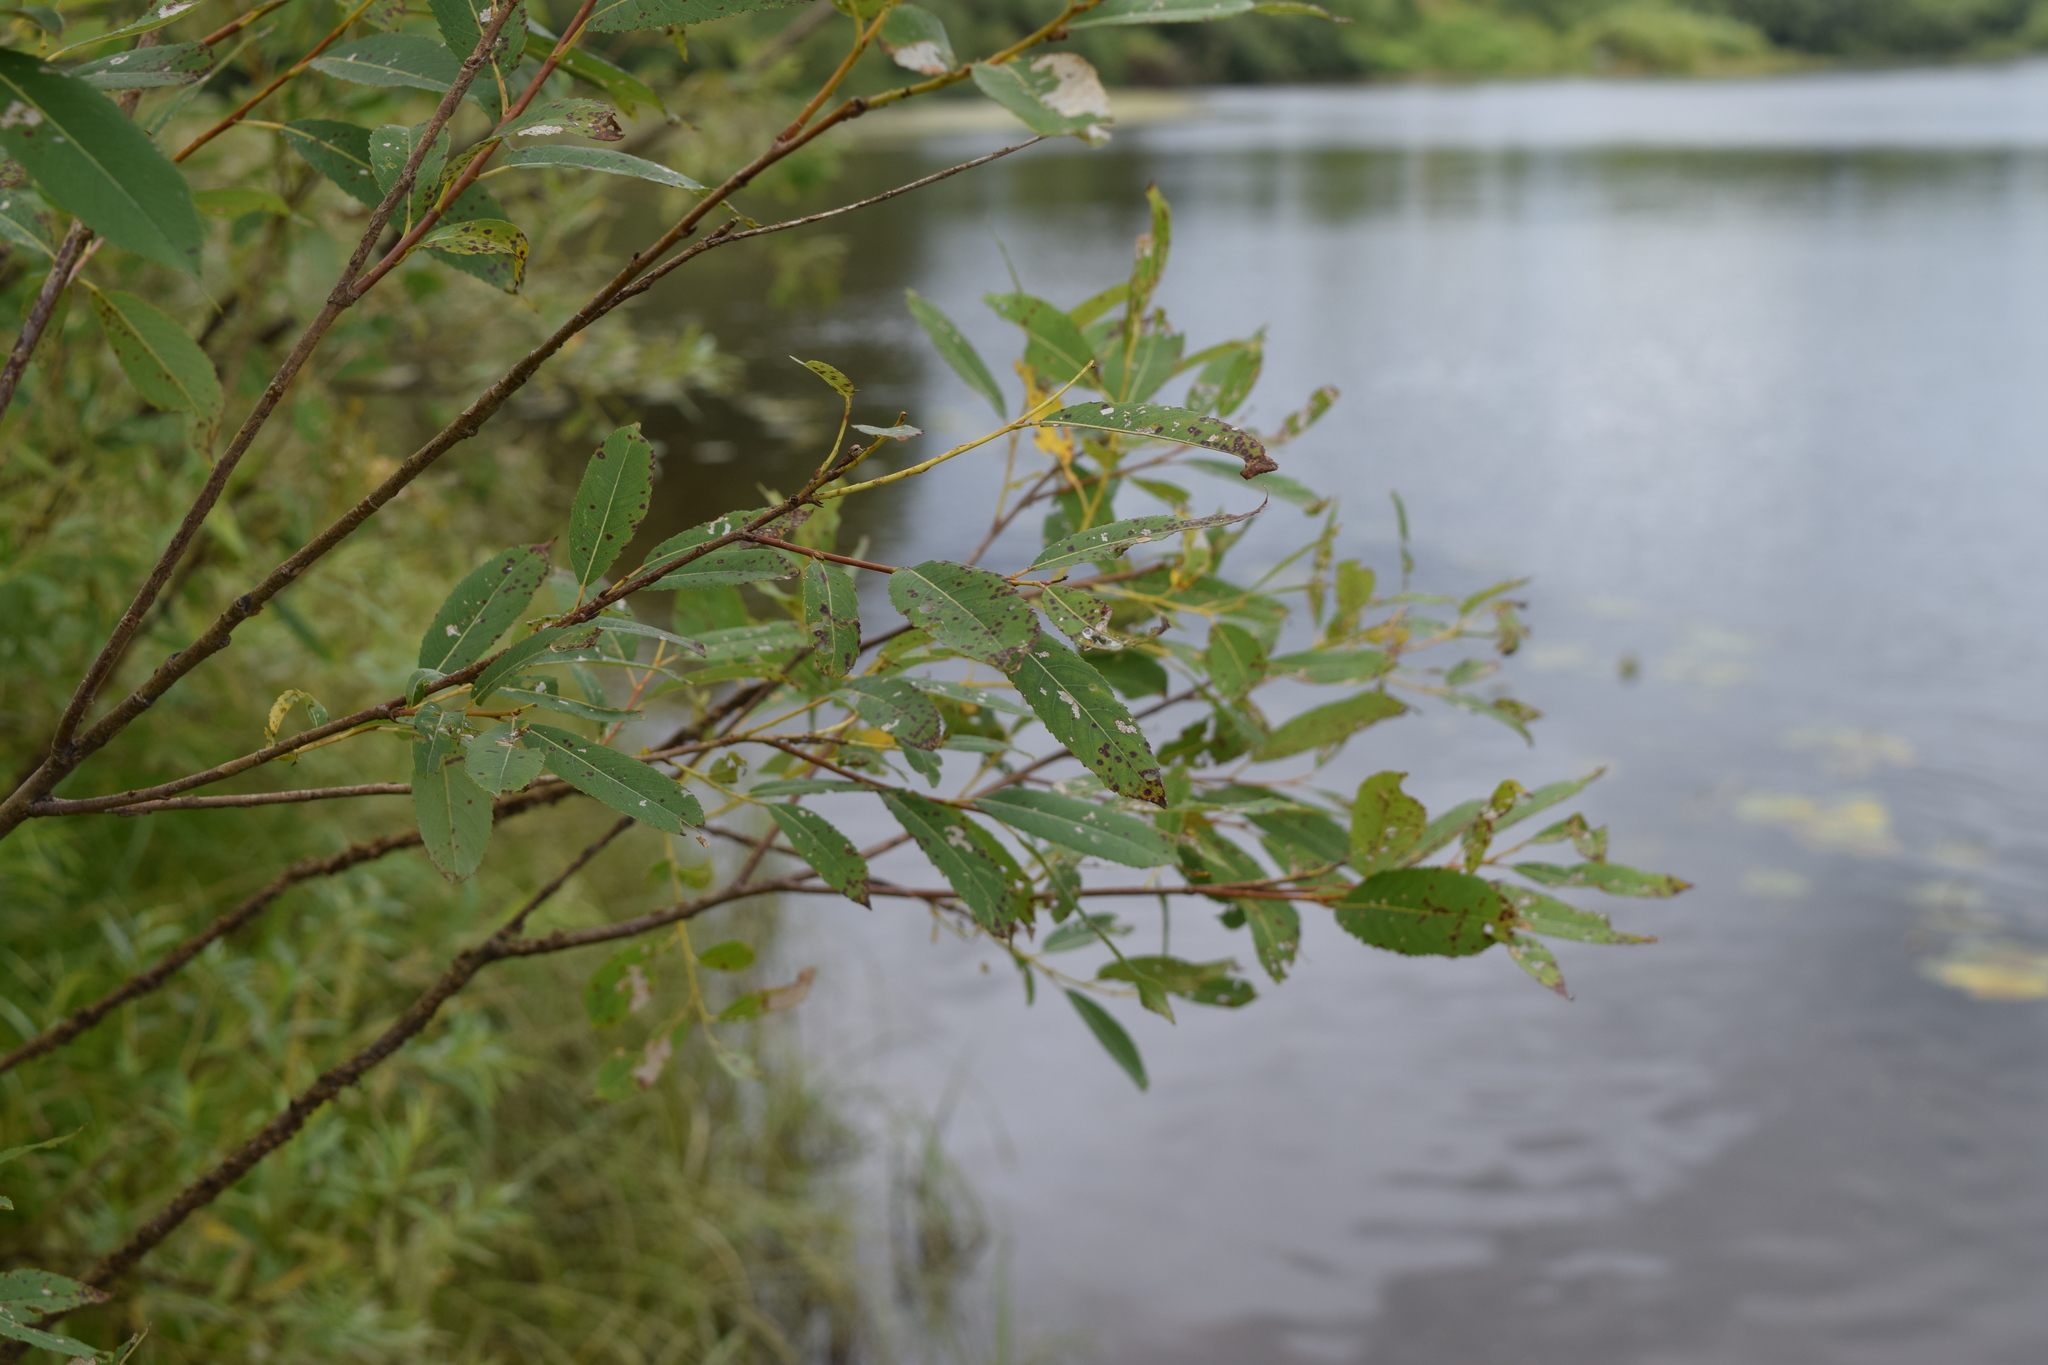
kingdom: Plantae
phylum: Tracheophyta
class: Magnoliopsida
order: Malpighiales
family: Salicaceae
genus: Salix
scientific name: Salix triandra
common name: Almond willow
